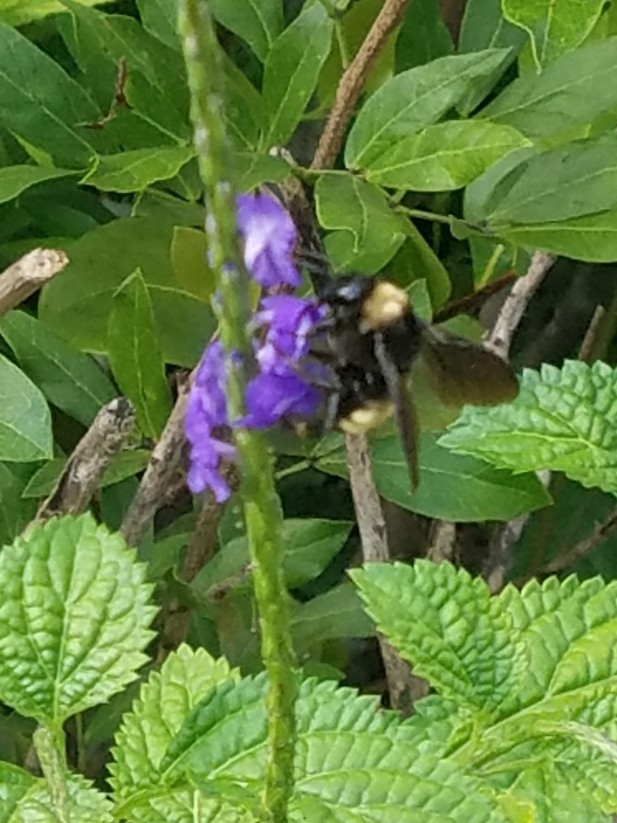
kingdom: Animalia
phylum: Arthropoda
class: Insecta
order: Hymenoptera
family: Apidae
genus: Bombus
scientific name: Bombus pensylvanicus
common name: Bumble bee
